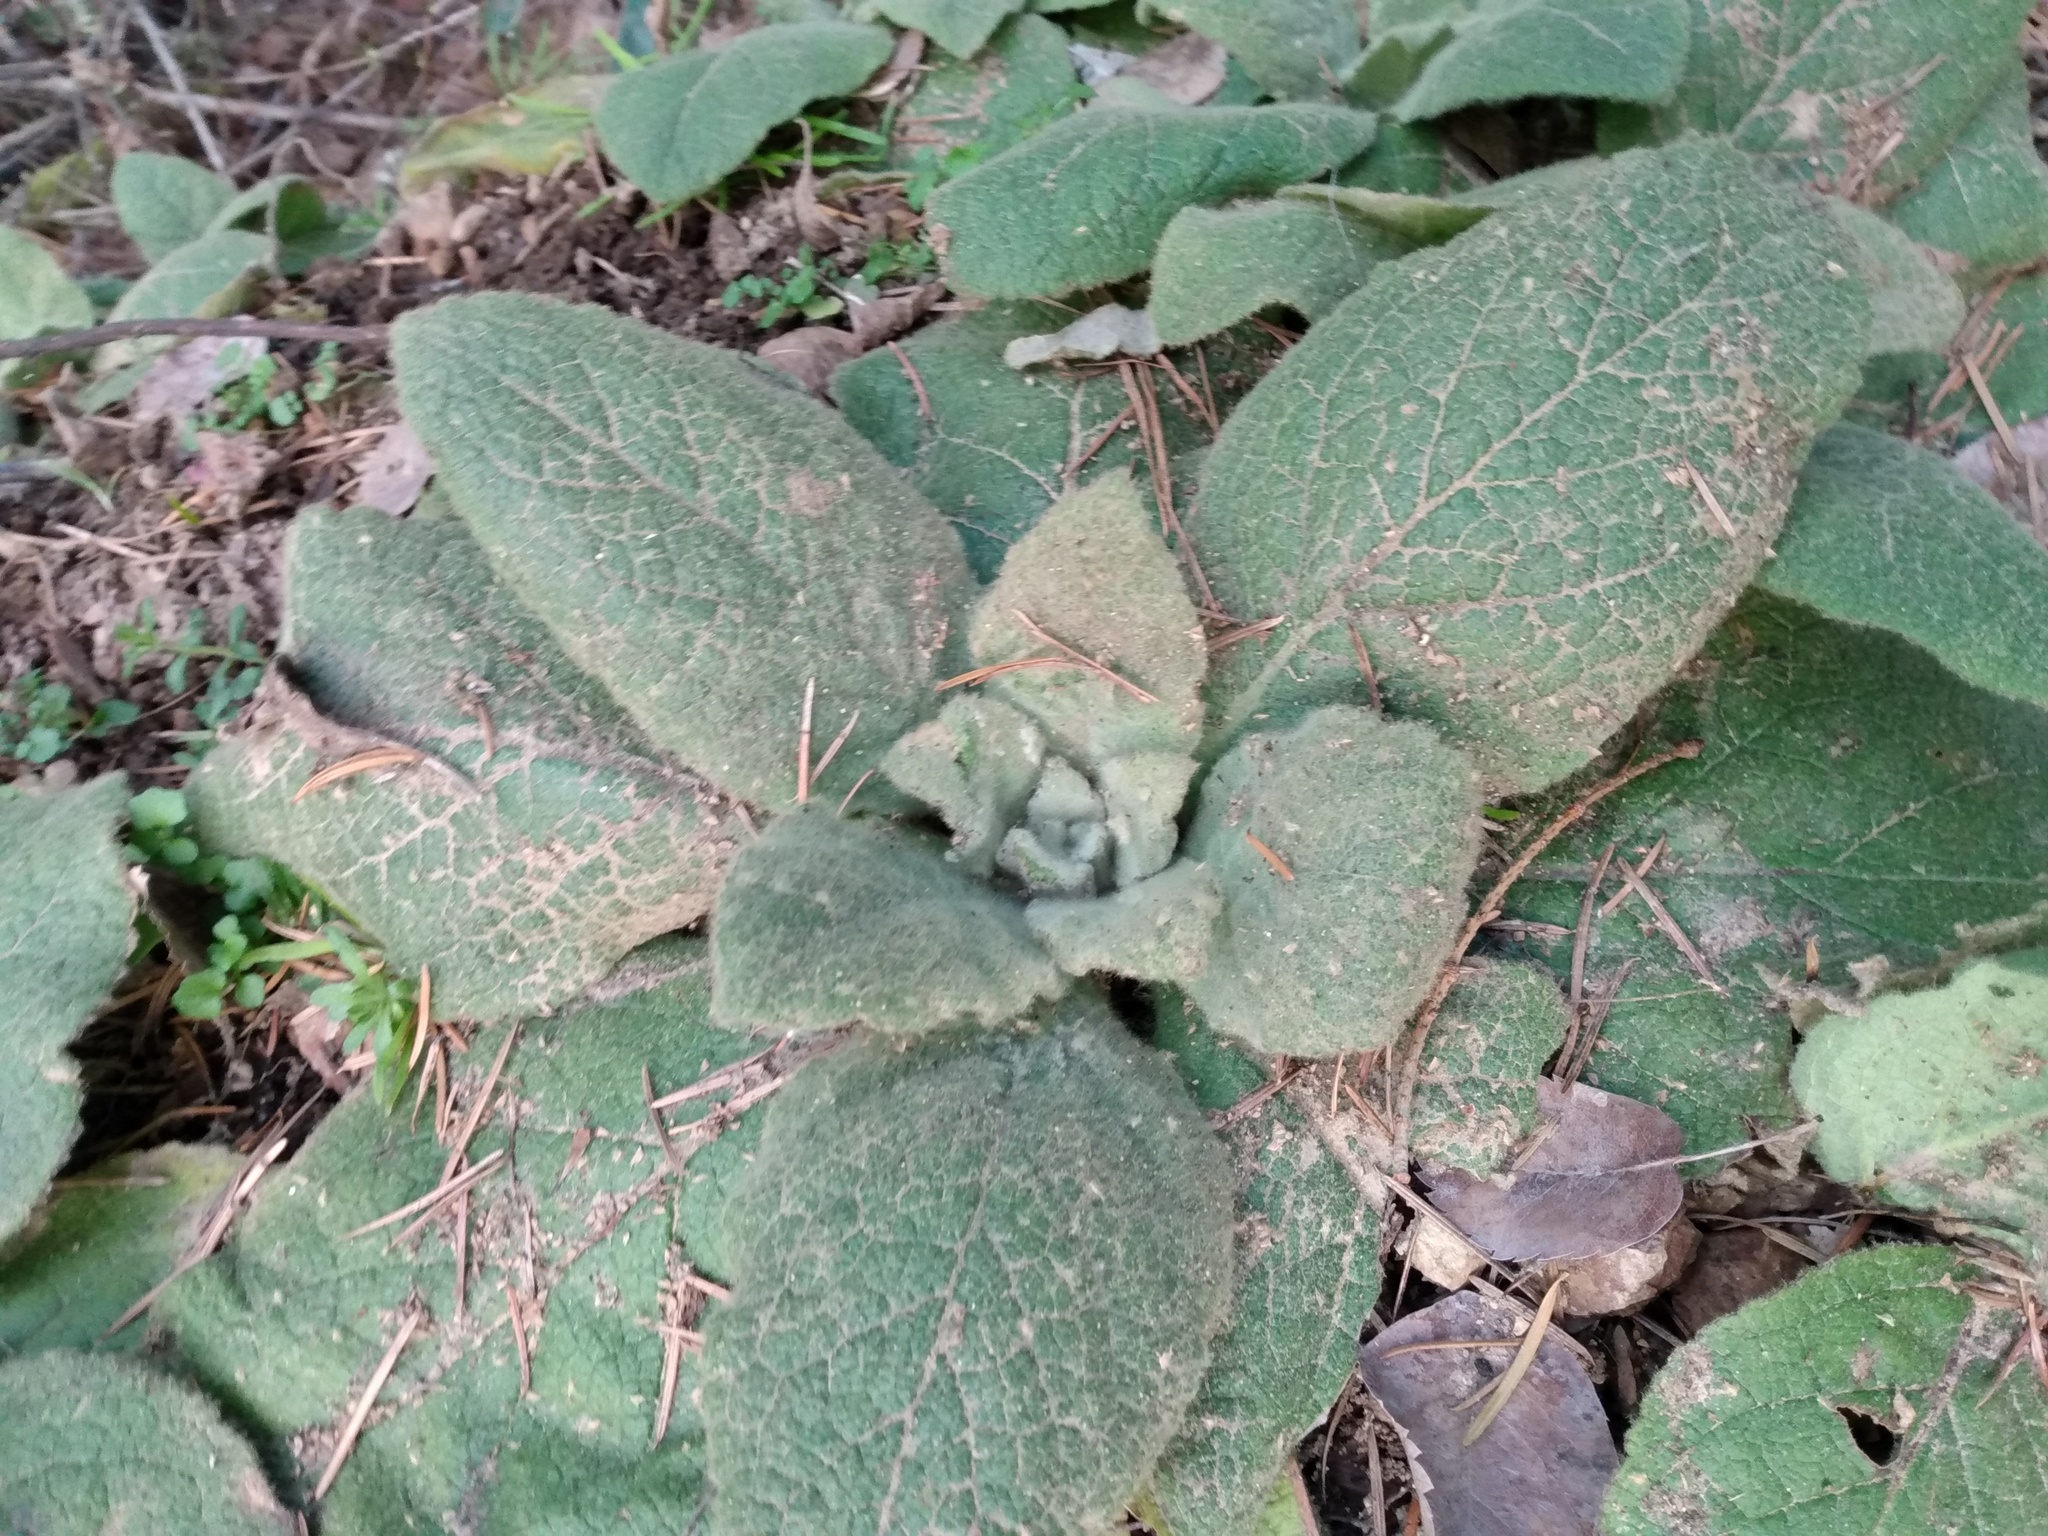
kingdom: Plantae
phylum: Tracheophyta
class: Magnoliopsida
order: Lamiales
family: Scrophulariaceae
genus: Verbascum
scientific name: Verbascum thapsus
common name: Common mullein
